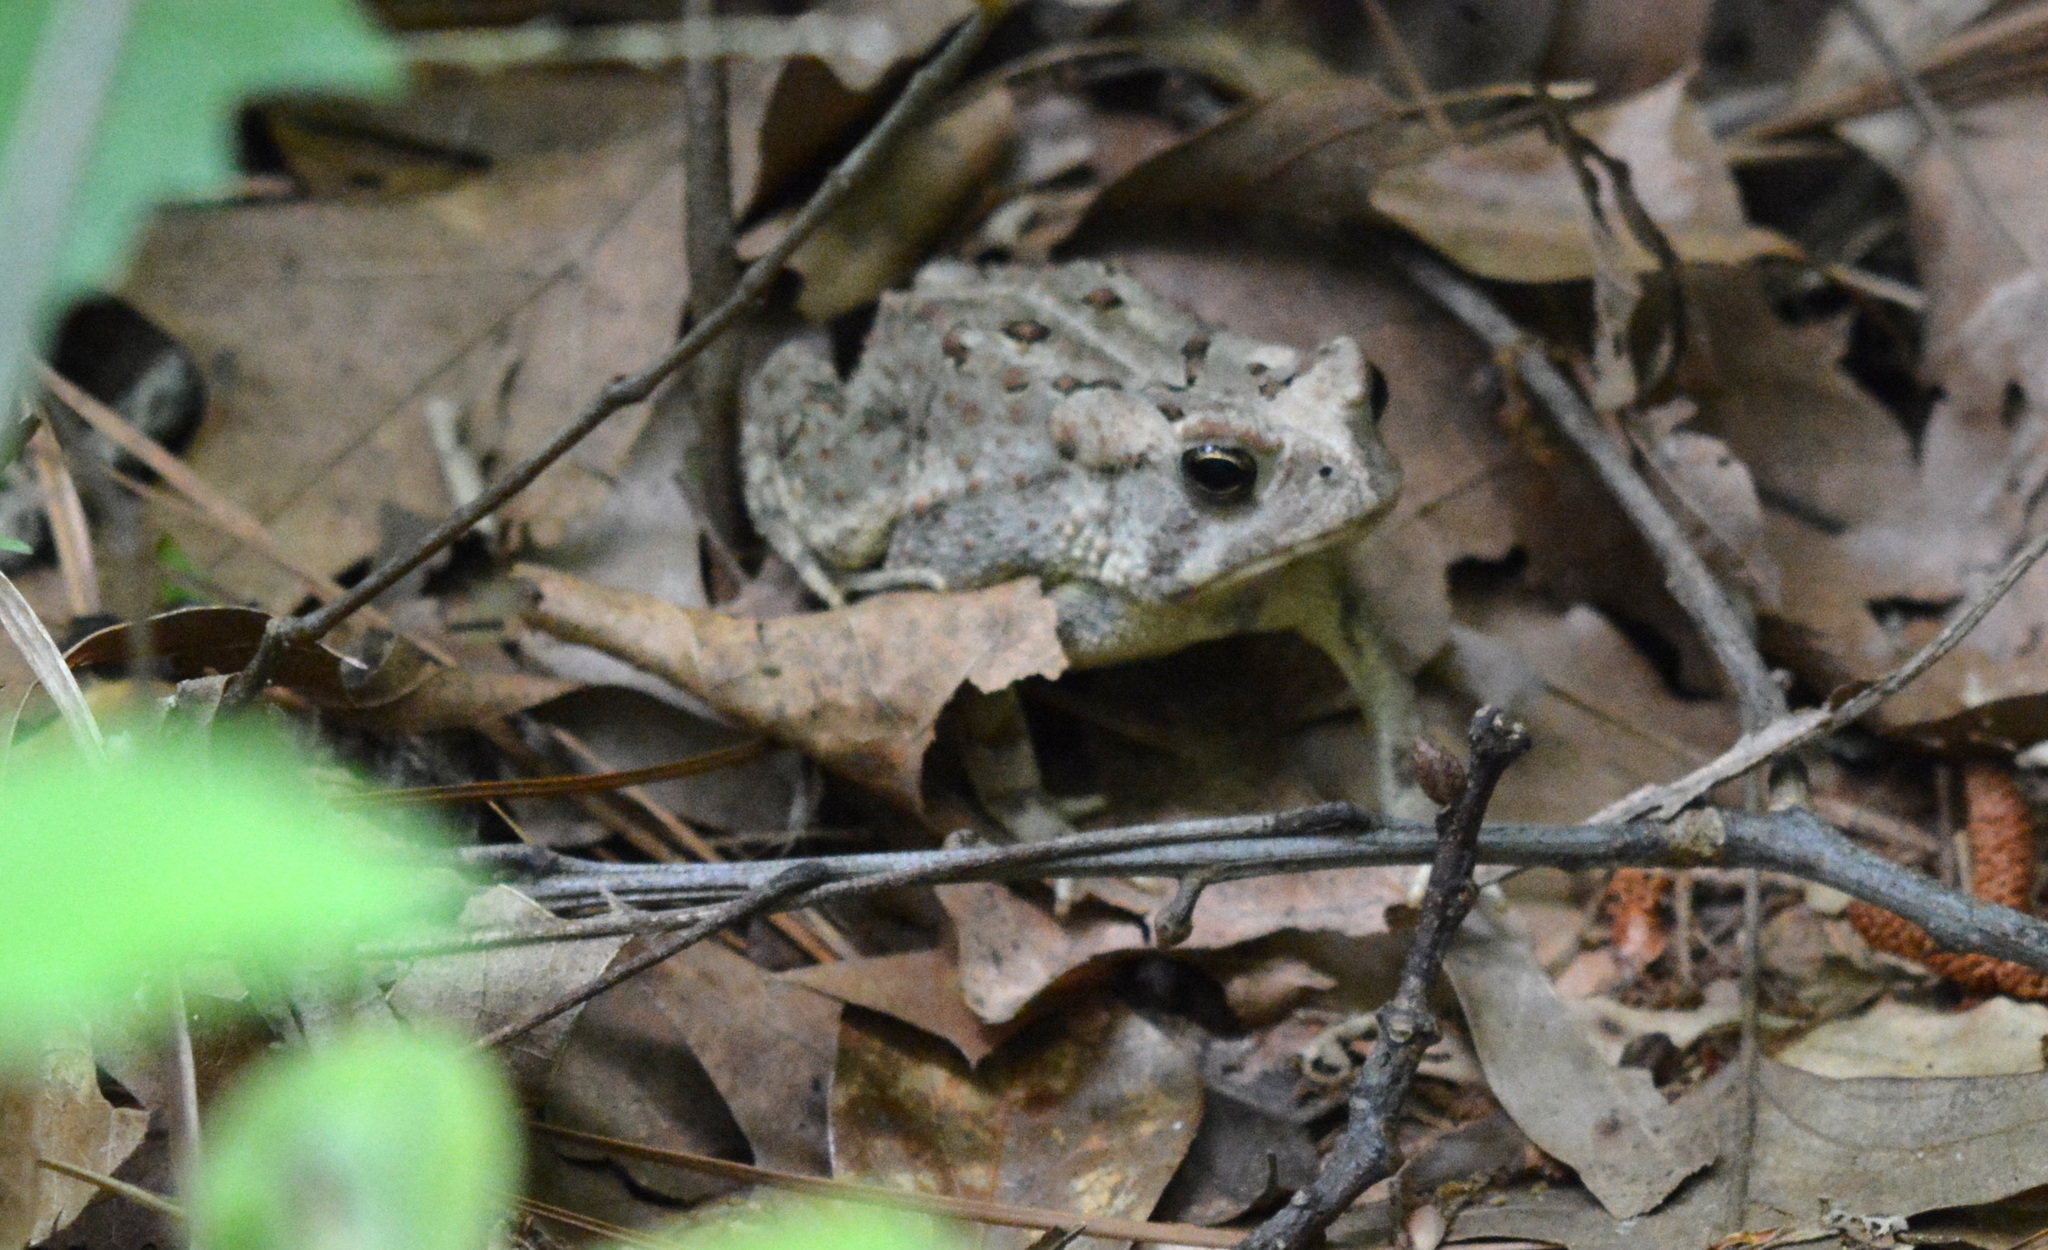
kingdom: Animalia
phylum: Chordata
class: Amphibia
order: Anura
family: Bufonidae
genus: Anaxyrus
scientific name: Anaxyrus fowleri
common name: Fowler's toad
